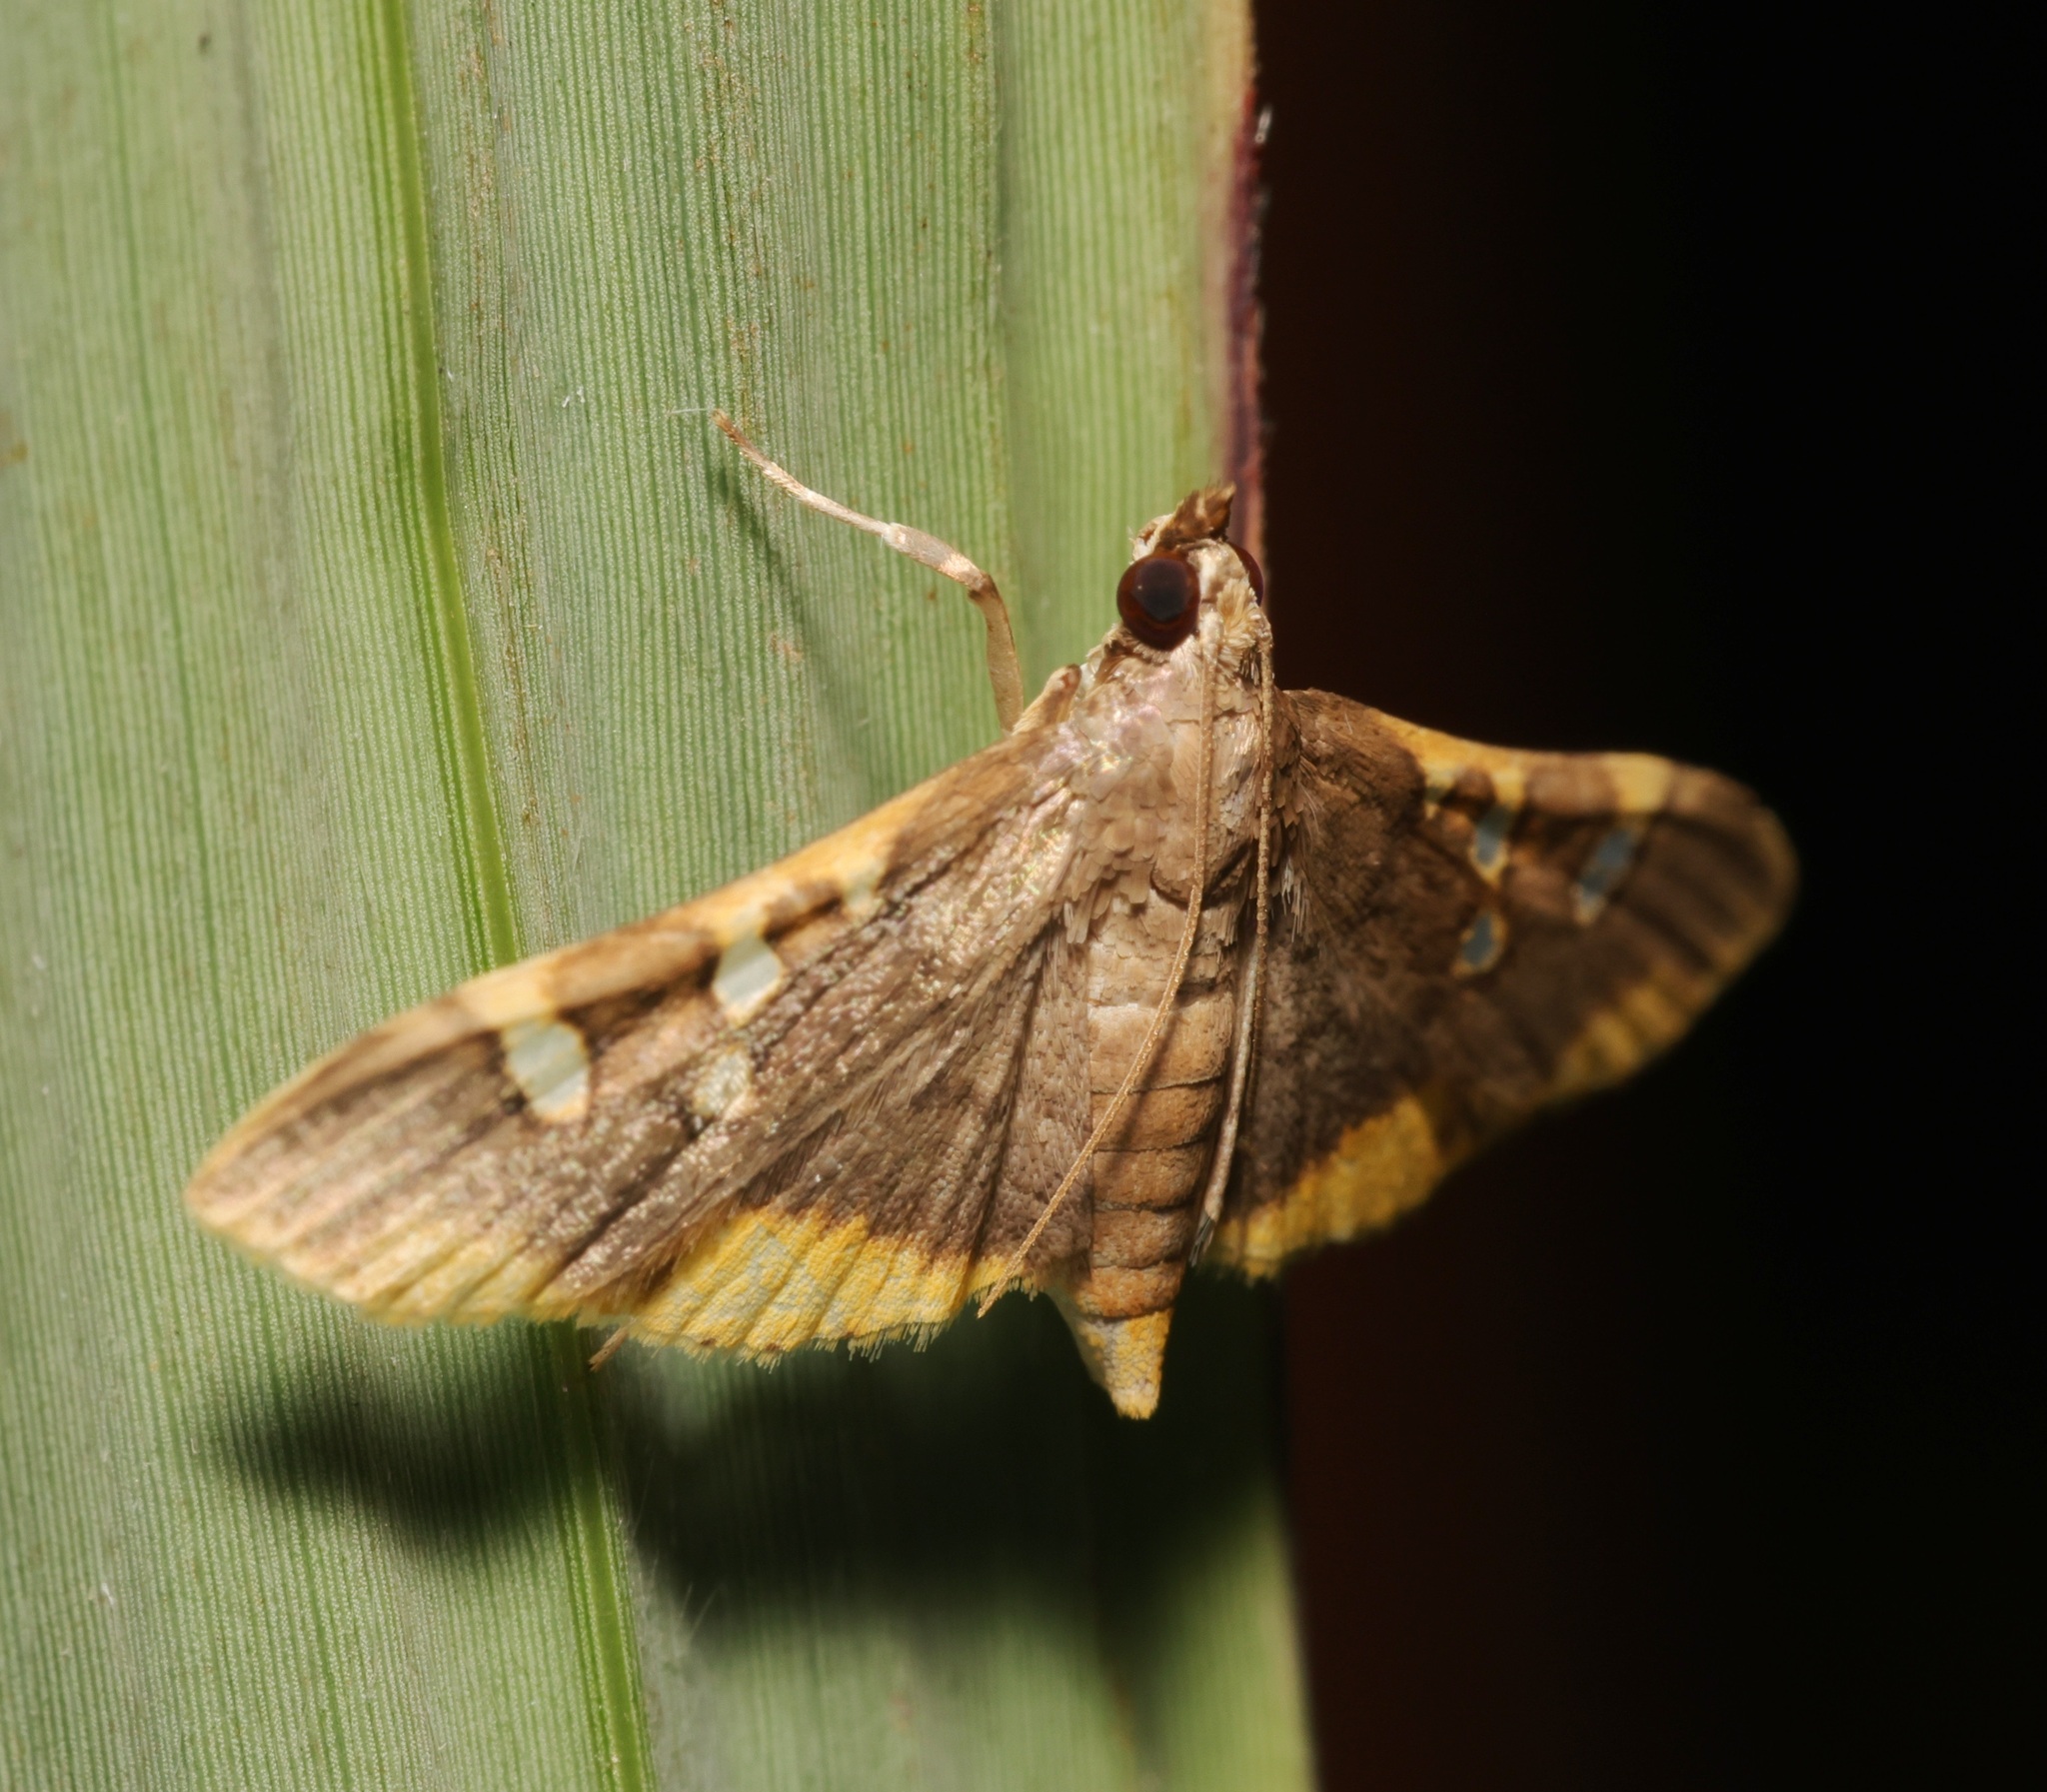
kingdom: Animalia
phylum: Arthropoda
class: Insecta
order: Lepidoptera
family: Crambidae
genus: Prophantis
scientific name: Prophantis adusta
